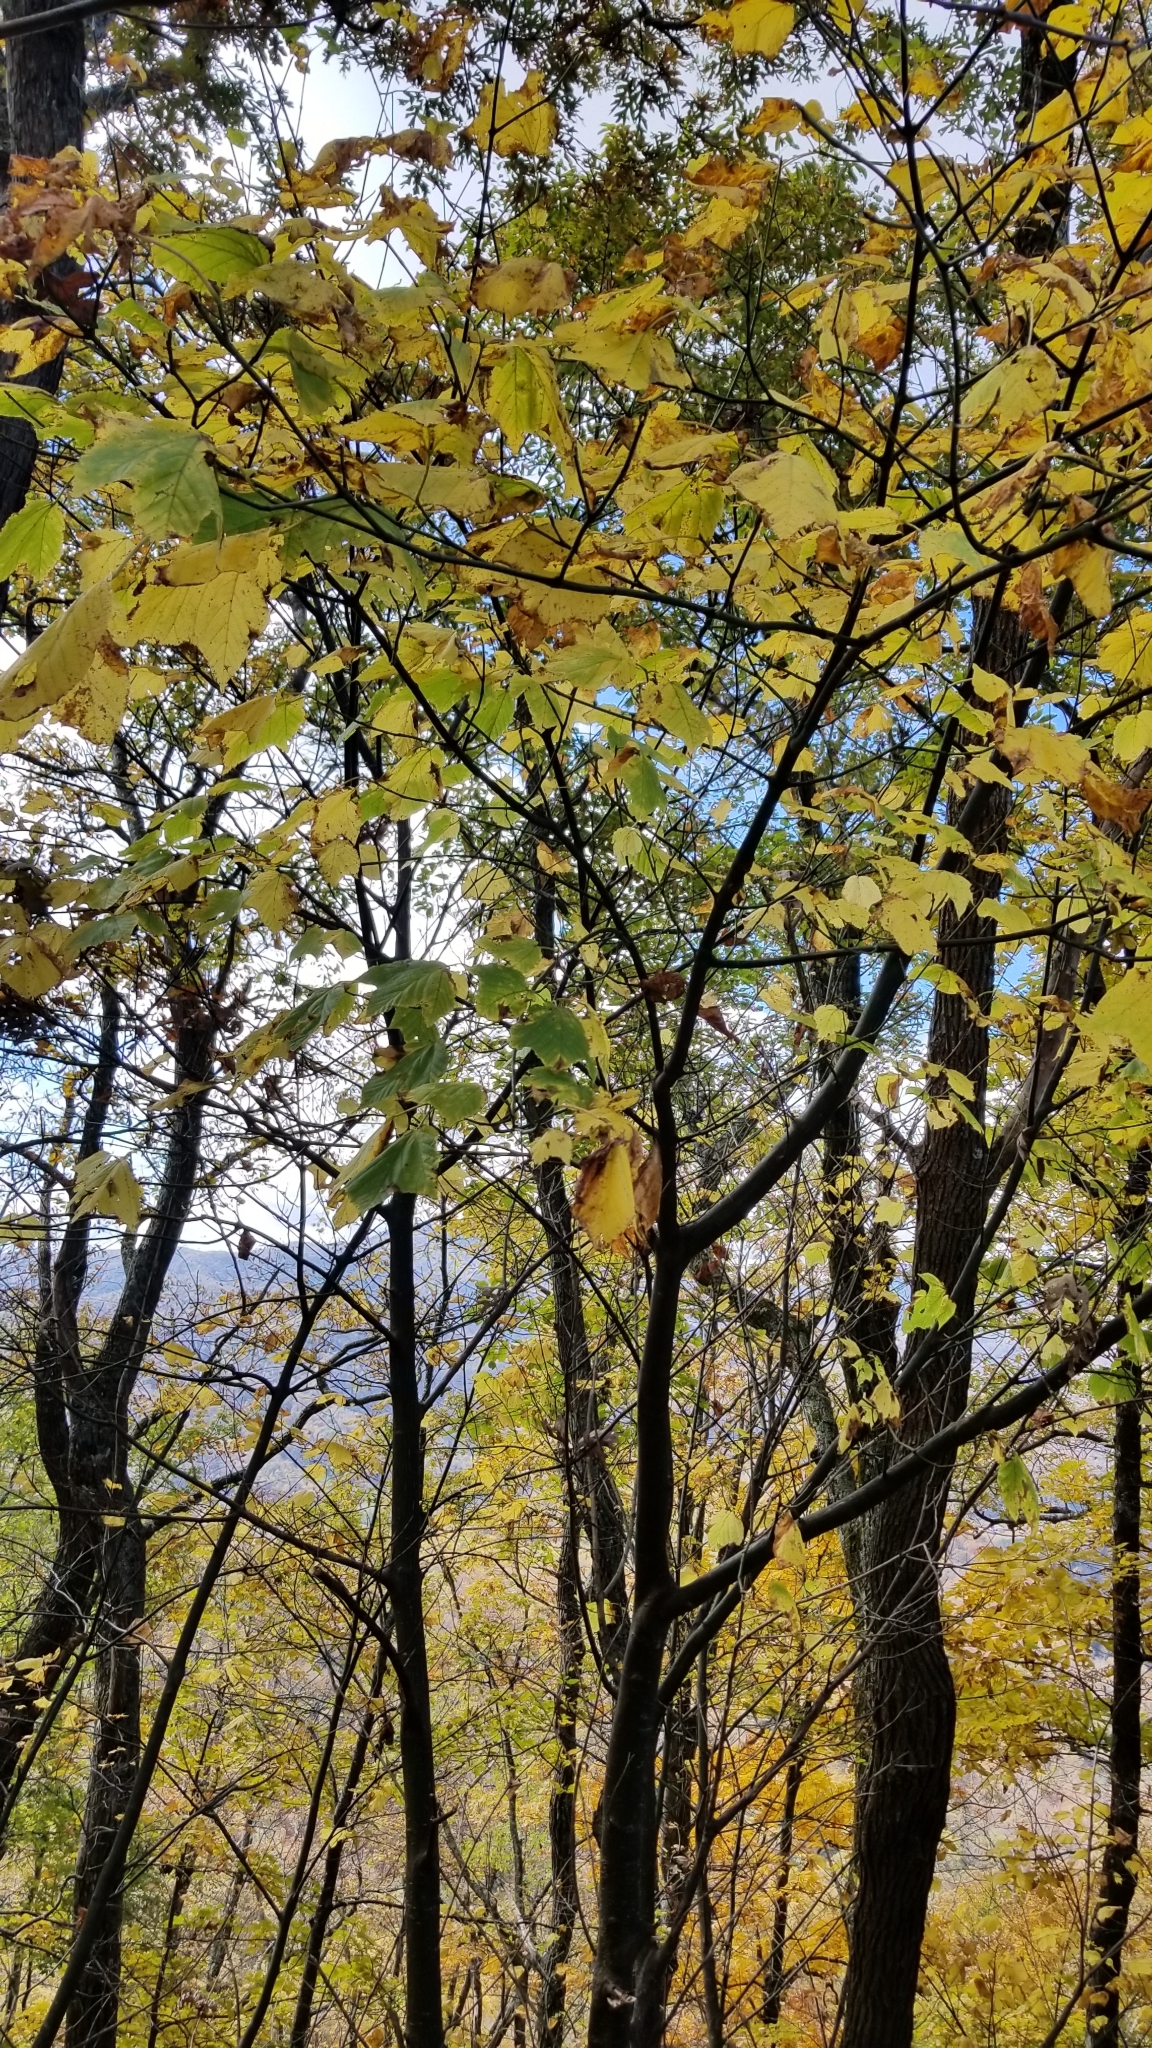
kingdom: Plantae
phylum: Tracheophyta
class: Magnoliopsida
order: Sapindales
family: Sapindaceae
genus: Acer
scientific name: Acer pensylvanicum
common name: Moosewood
